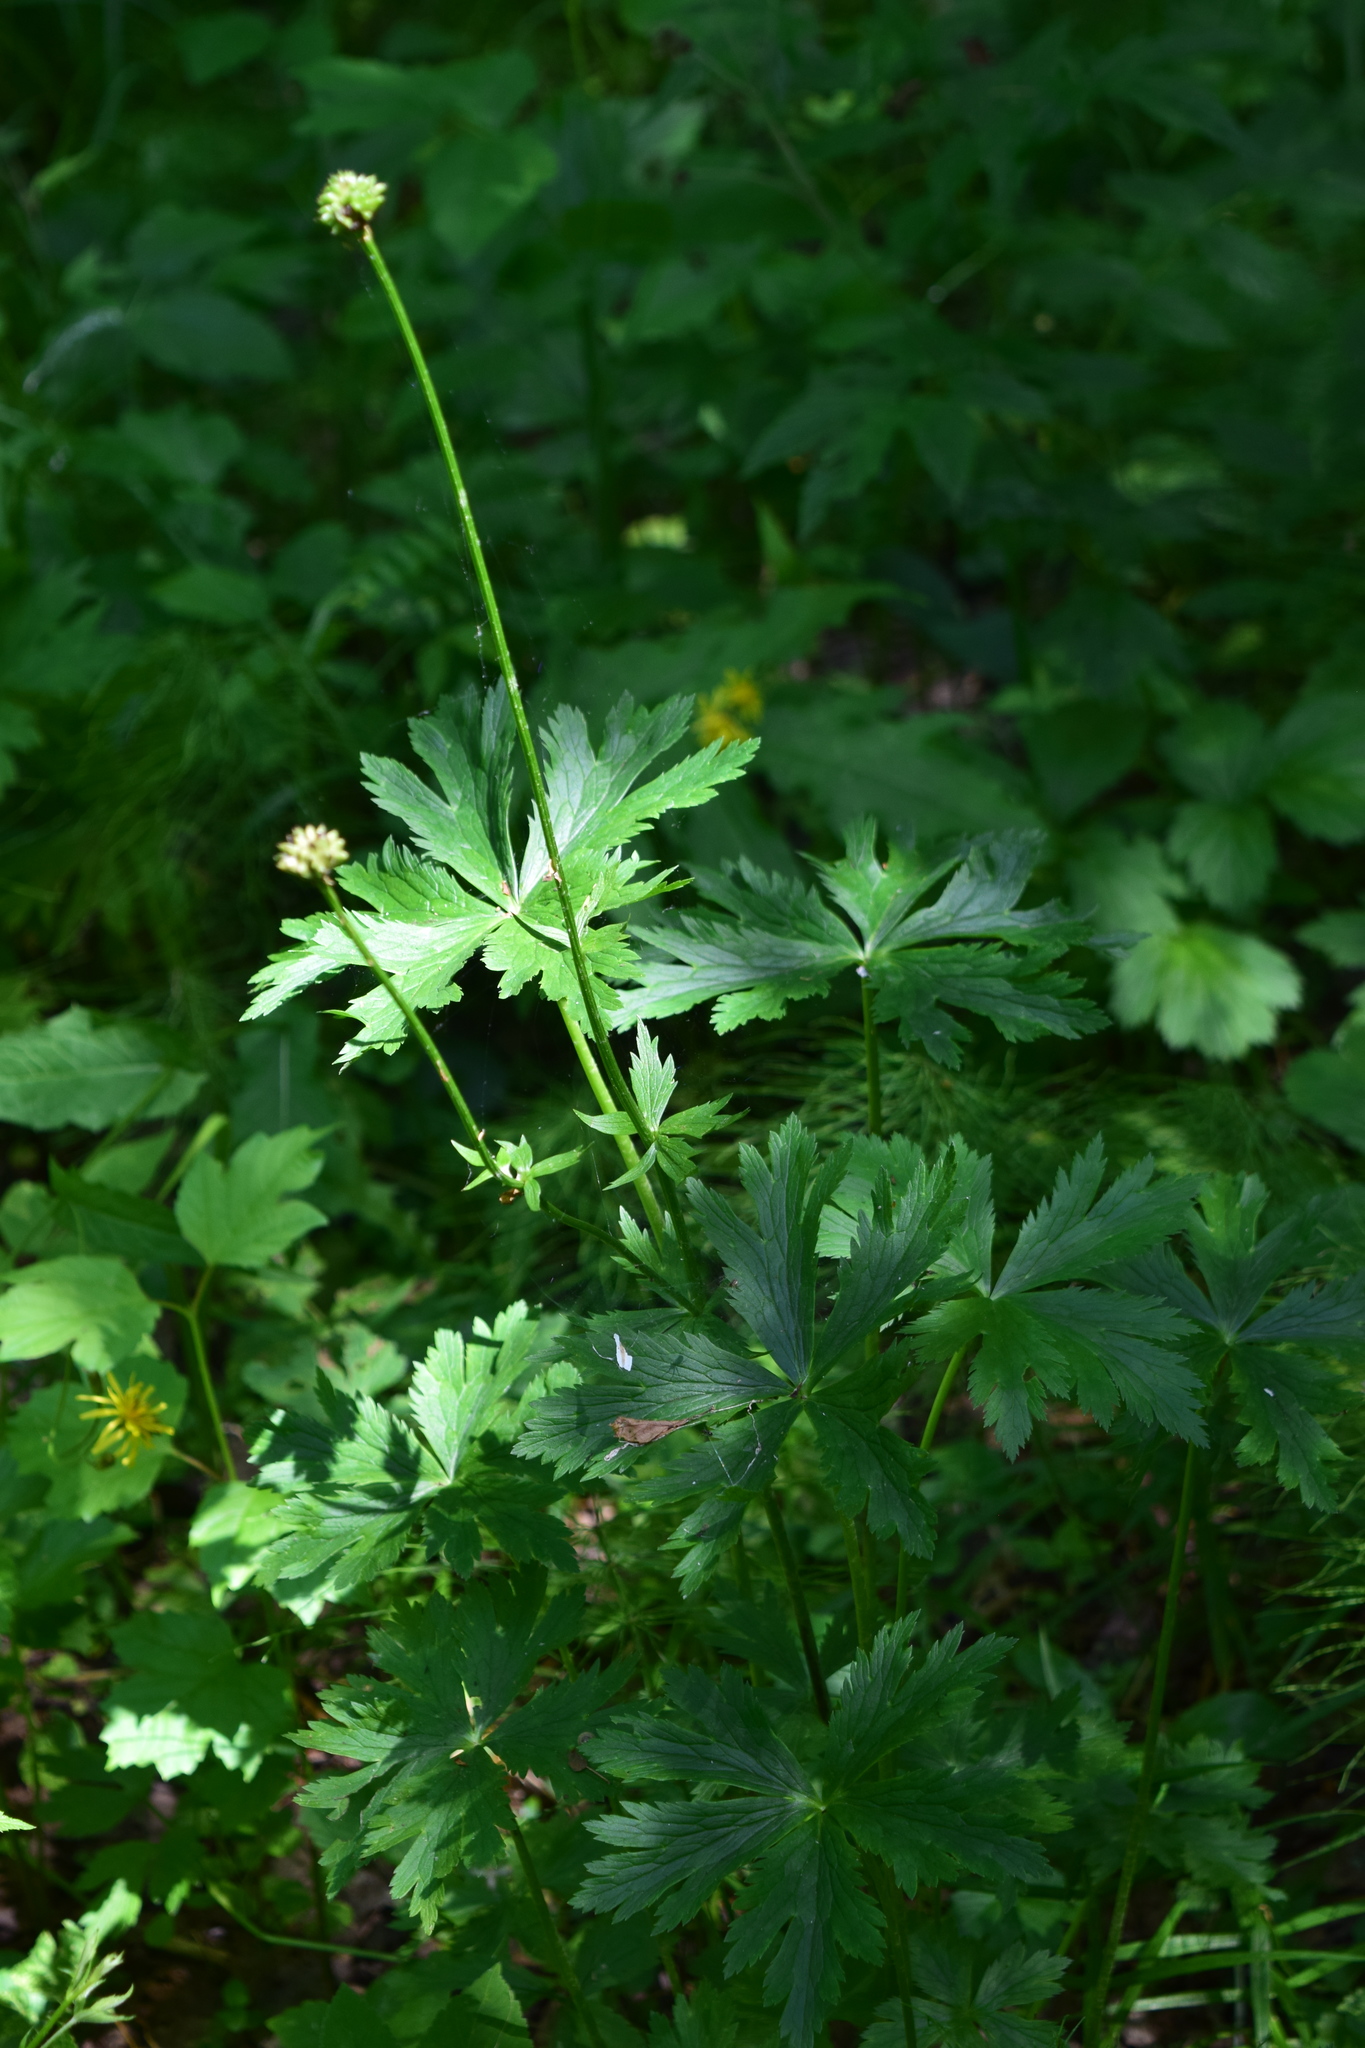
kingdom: Plantae
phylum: Tracheophyta
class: Magnoliopsida
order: Ranunculales
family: Ranunculaceae
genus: Trollius
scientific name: Trollius europaeus
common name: European globeflower
